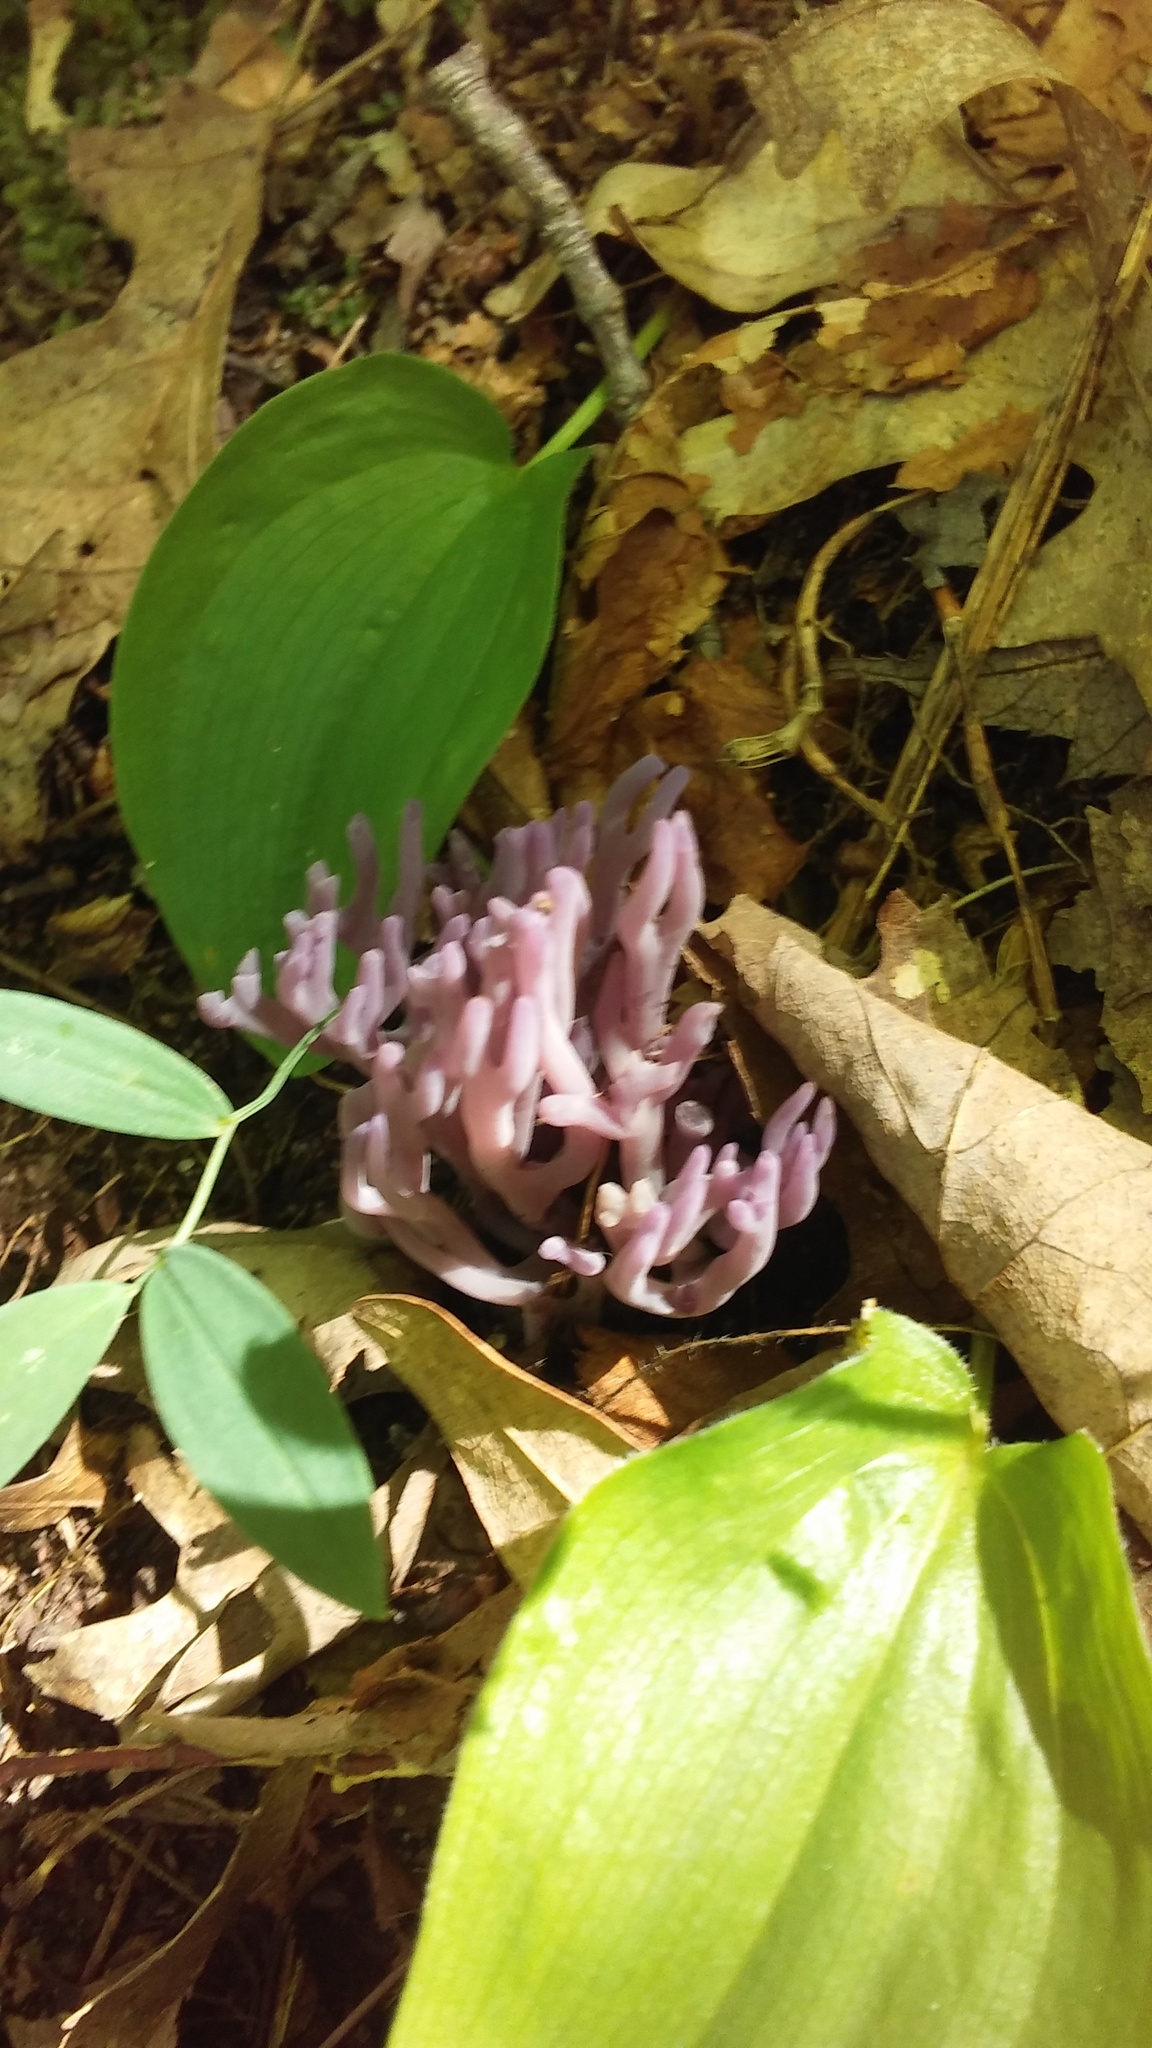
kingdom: Fungi
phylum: Basidiomycota
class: Agaricomycetes
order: Agaricales
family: Clavariaceae
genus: Clavaria
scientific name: Clavaria zollingeri
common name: Violet coral
